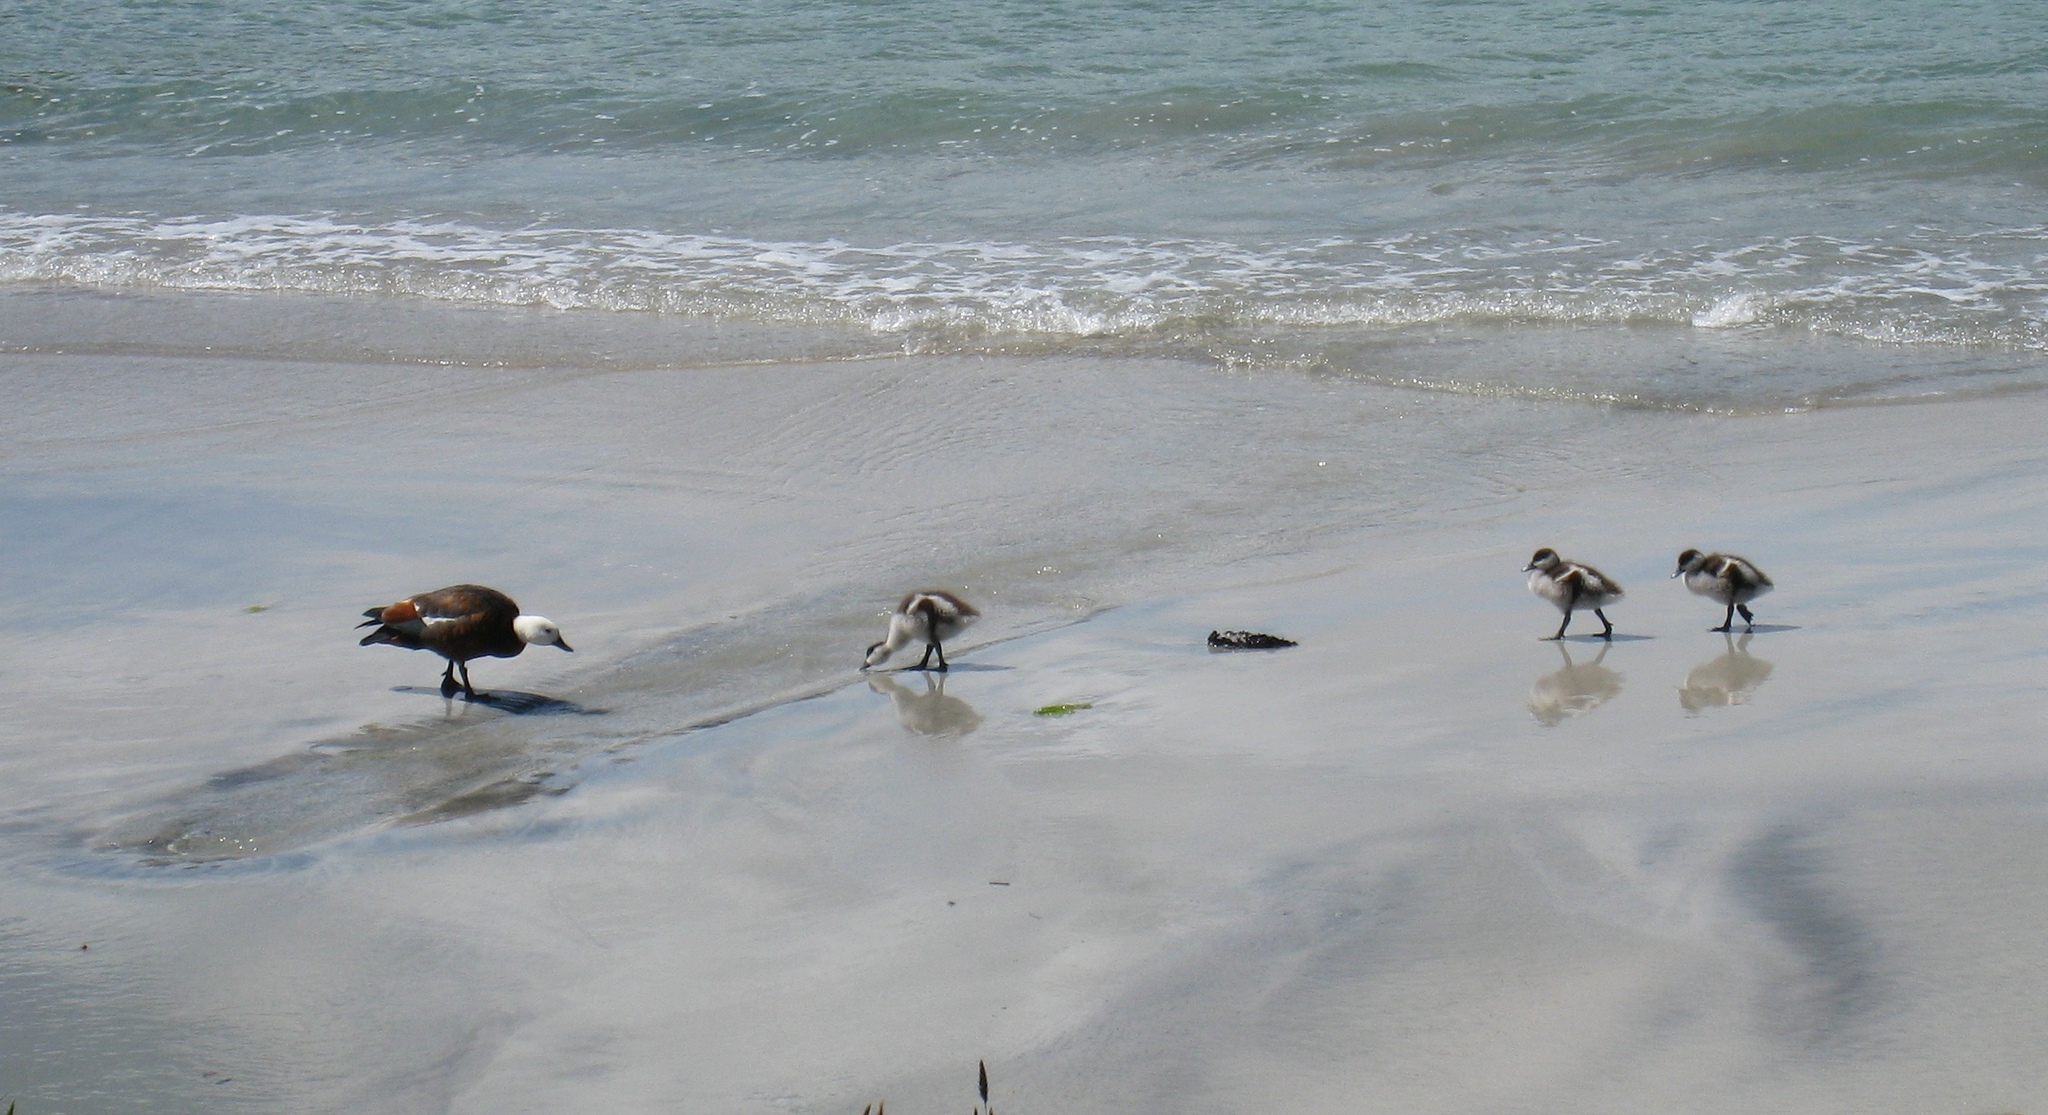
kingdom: Animalia
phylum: Chordata
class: Aves
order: Anseriformes
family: Anatidae
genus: Tadorna
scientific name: Tadorna variegata
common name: Paradise shelduck
